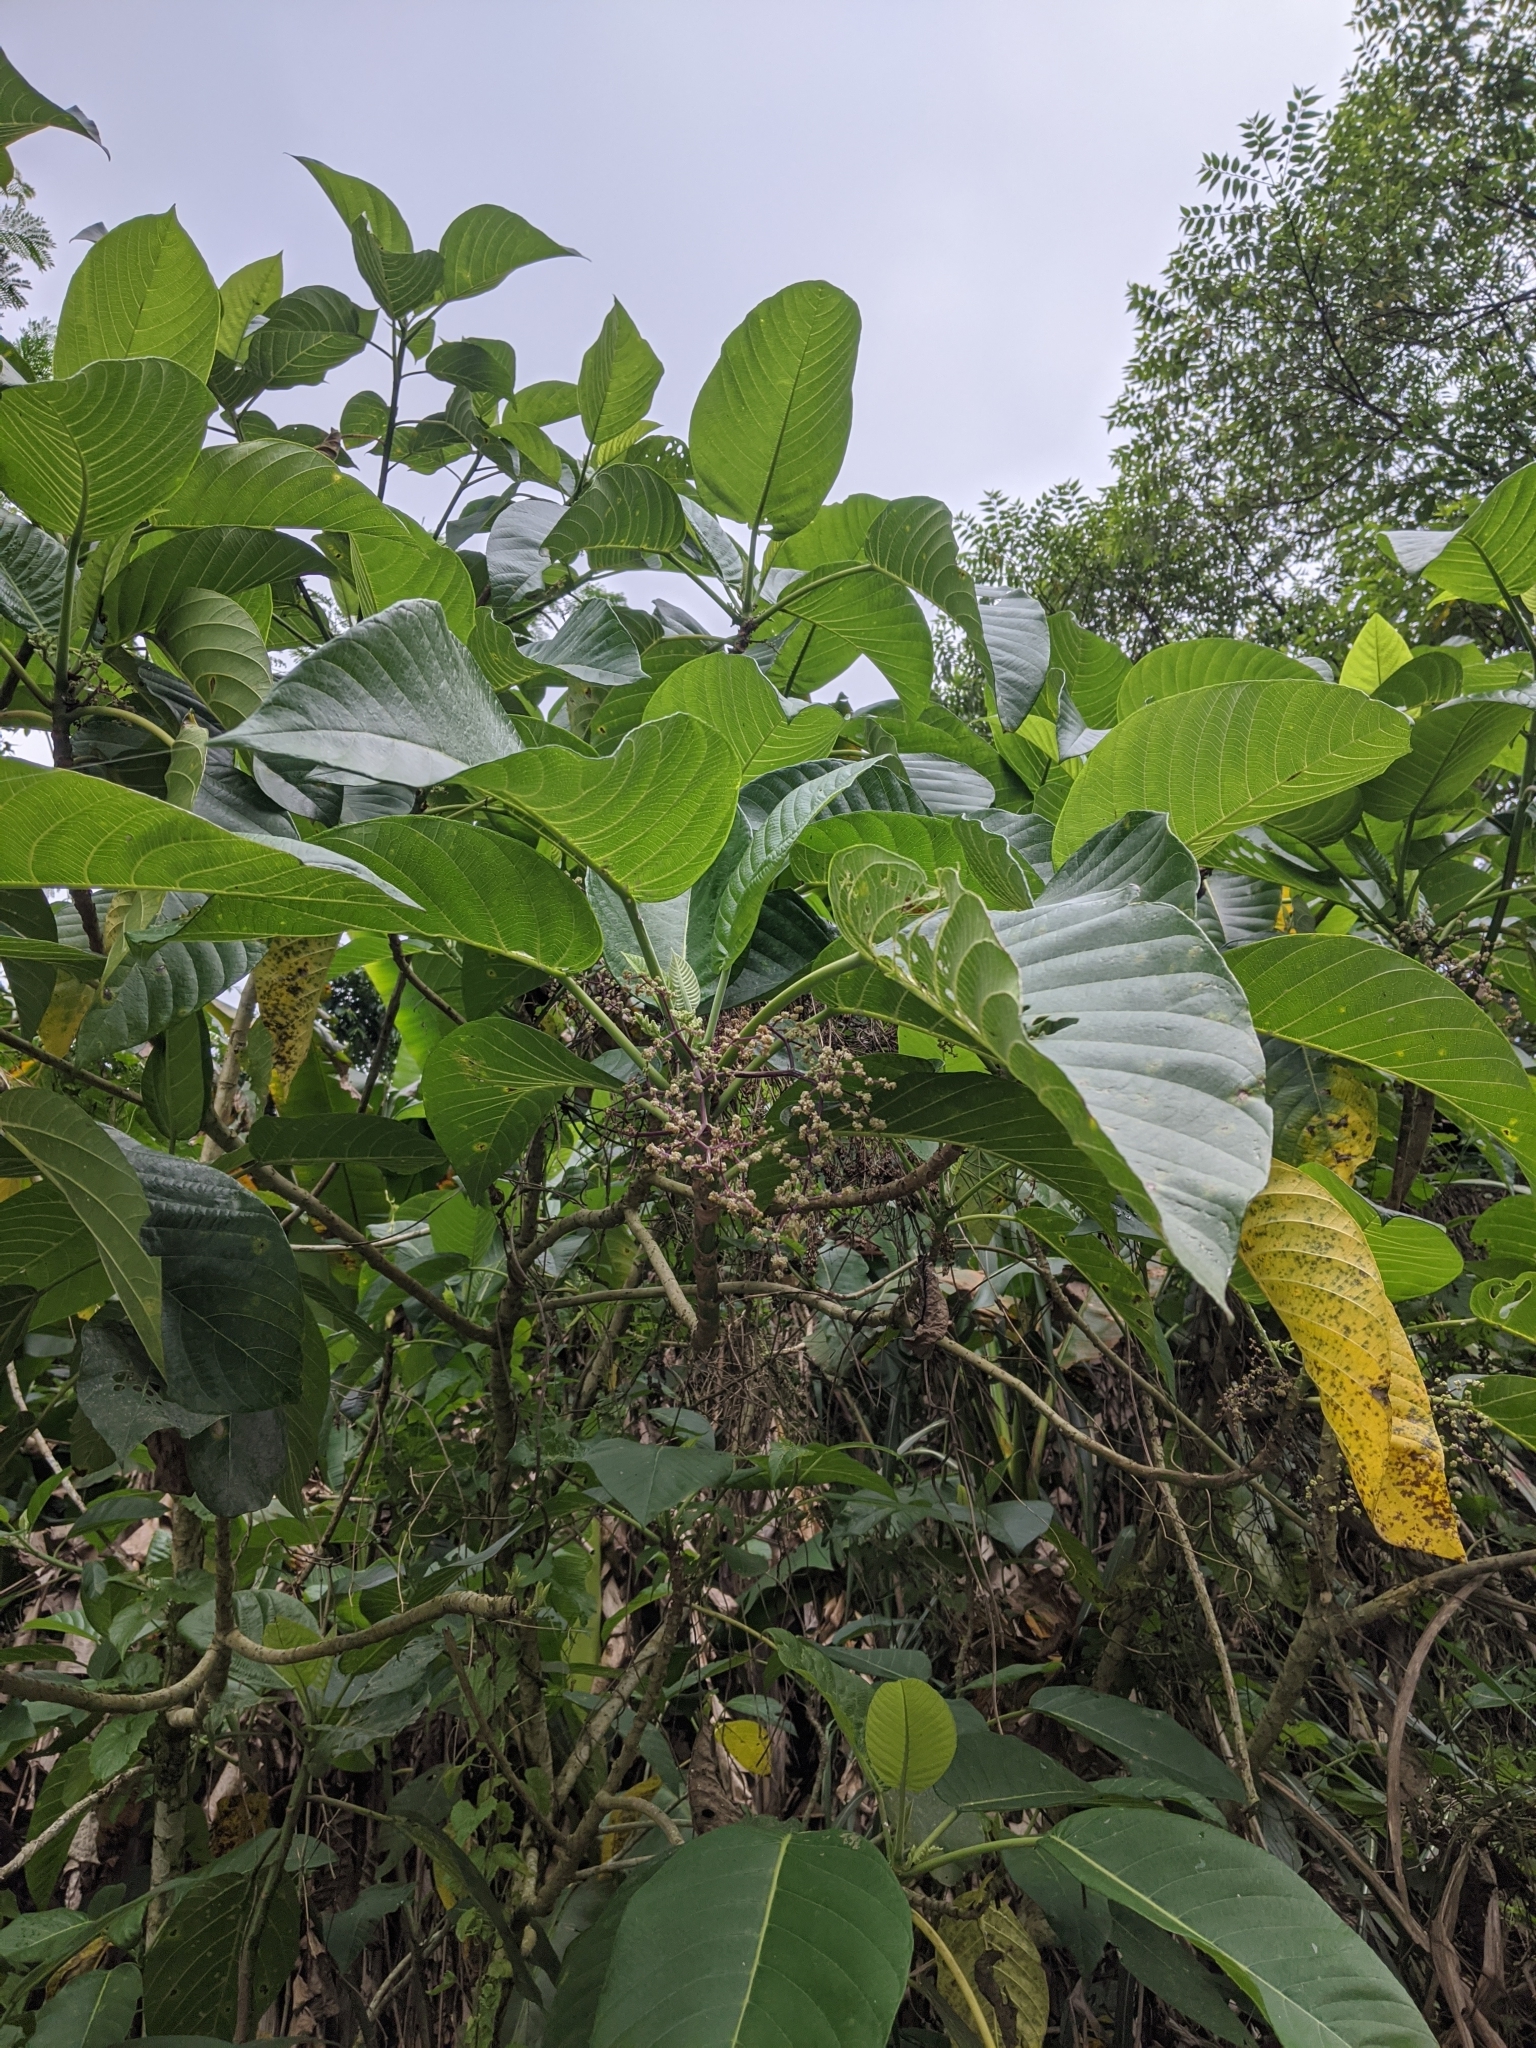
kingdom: Plantae
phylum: Tracheophyta
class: Magnoliopsida
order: Rosales
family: Urticaceae
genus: Dendrocnide
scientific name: Dendrocnide meyeniana
